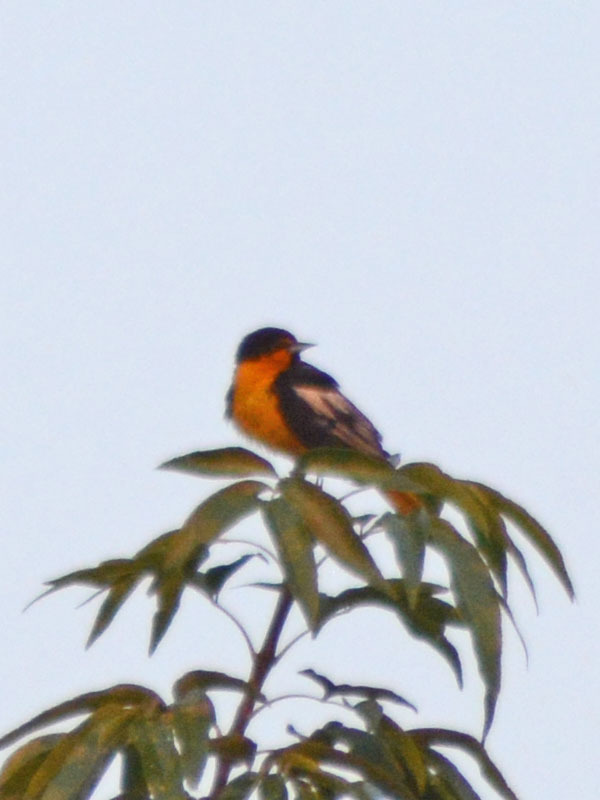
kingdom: Animalia
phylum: Chordata
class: Aves
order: Passeriformes
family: Icteridae
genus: Icterus
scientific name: Icterus abeillei
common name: Black-backed oriole
